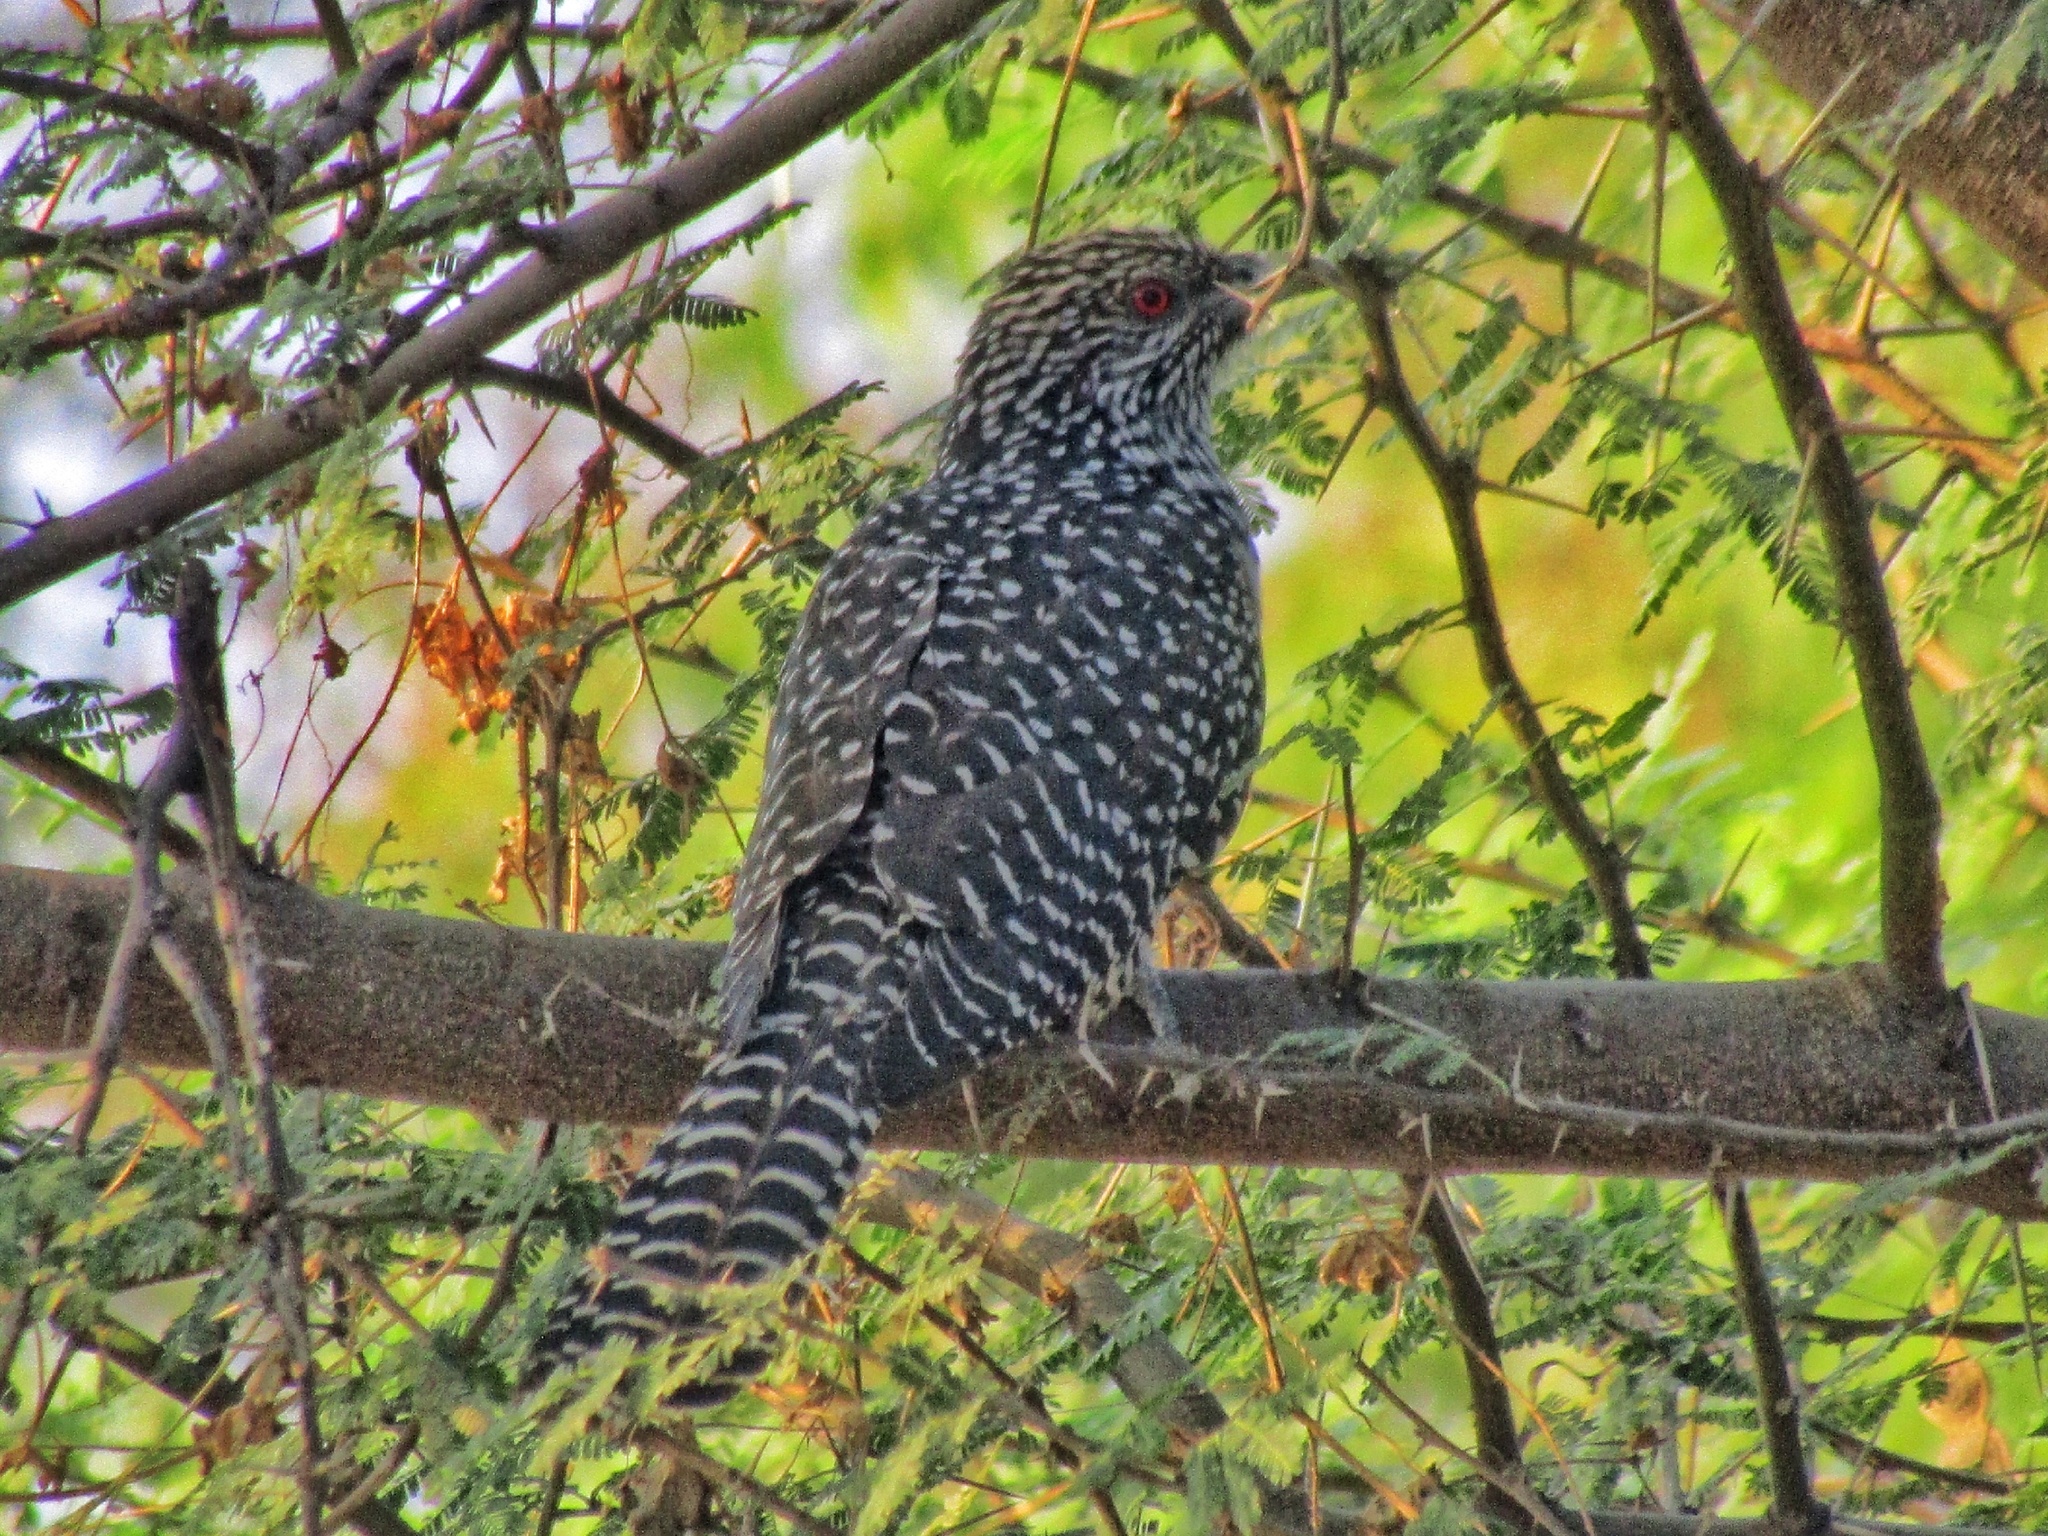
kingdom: Animalia
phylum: Chordata
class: Aves
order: Cuculiformes
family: Cuculidae
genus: Eudynamys
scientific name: Eudynamys scolopaceus
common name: Asian koel
